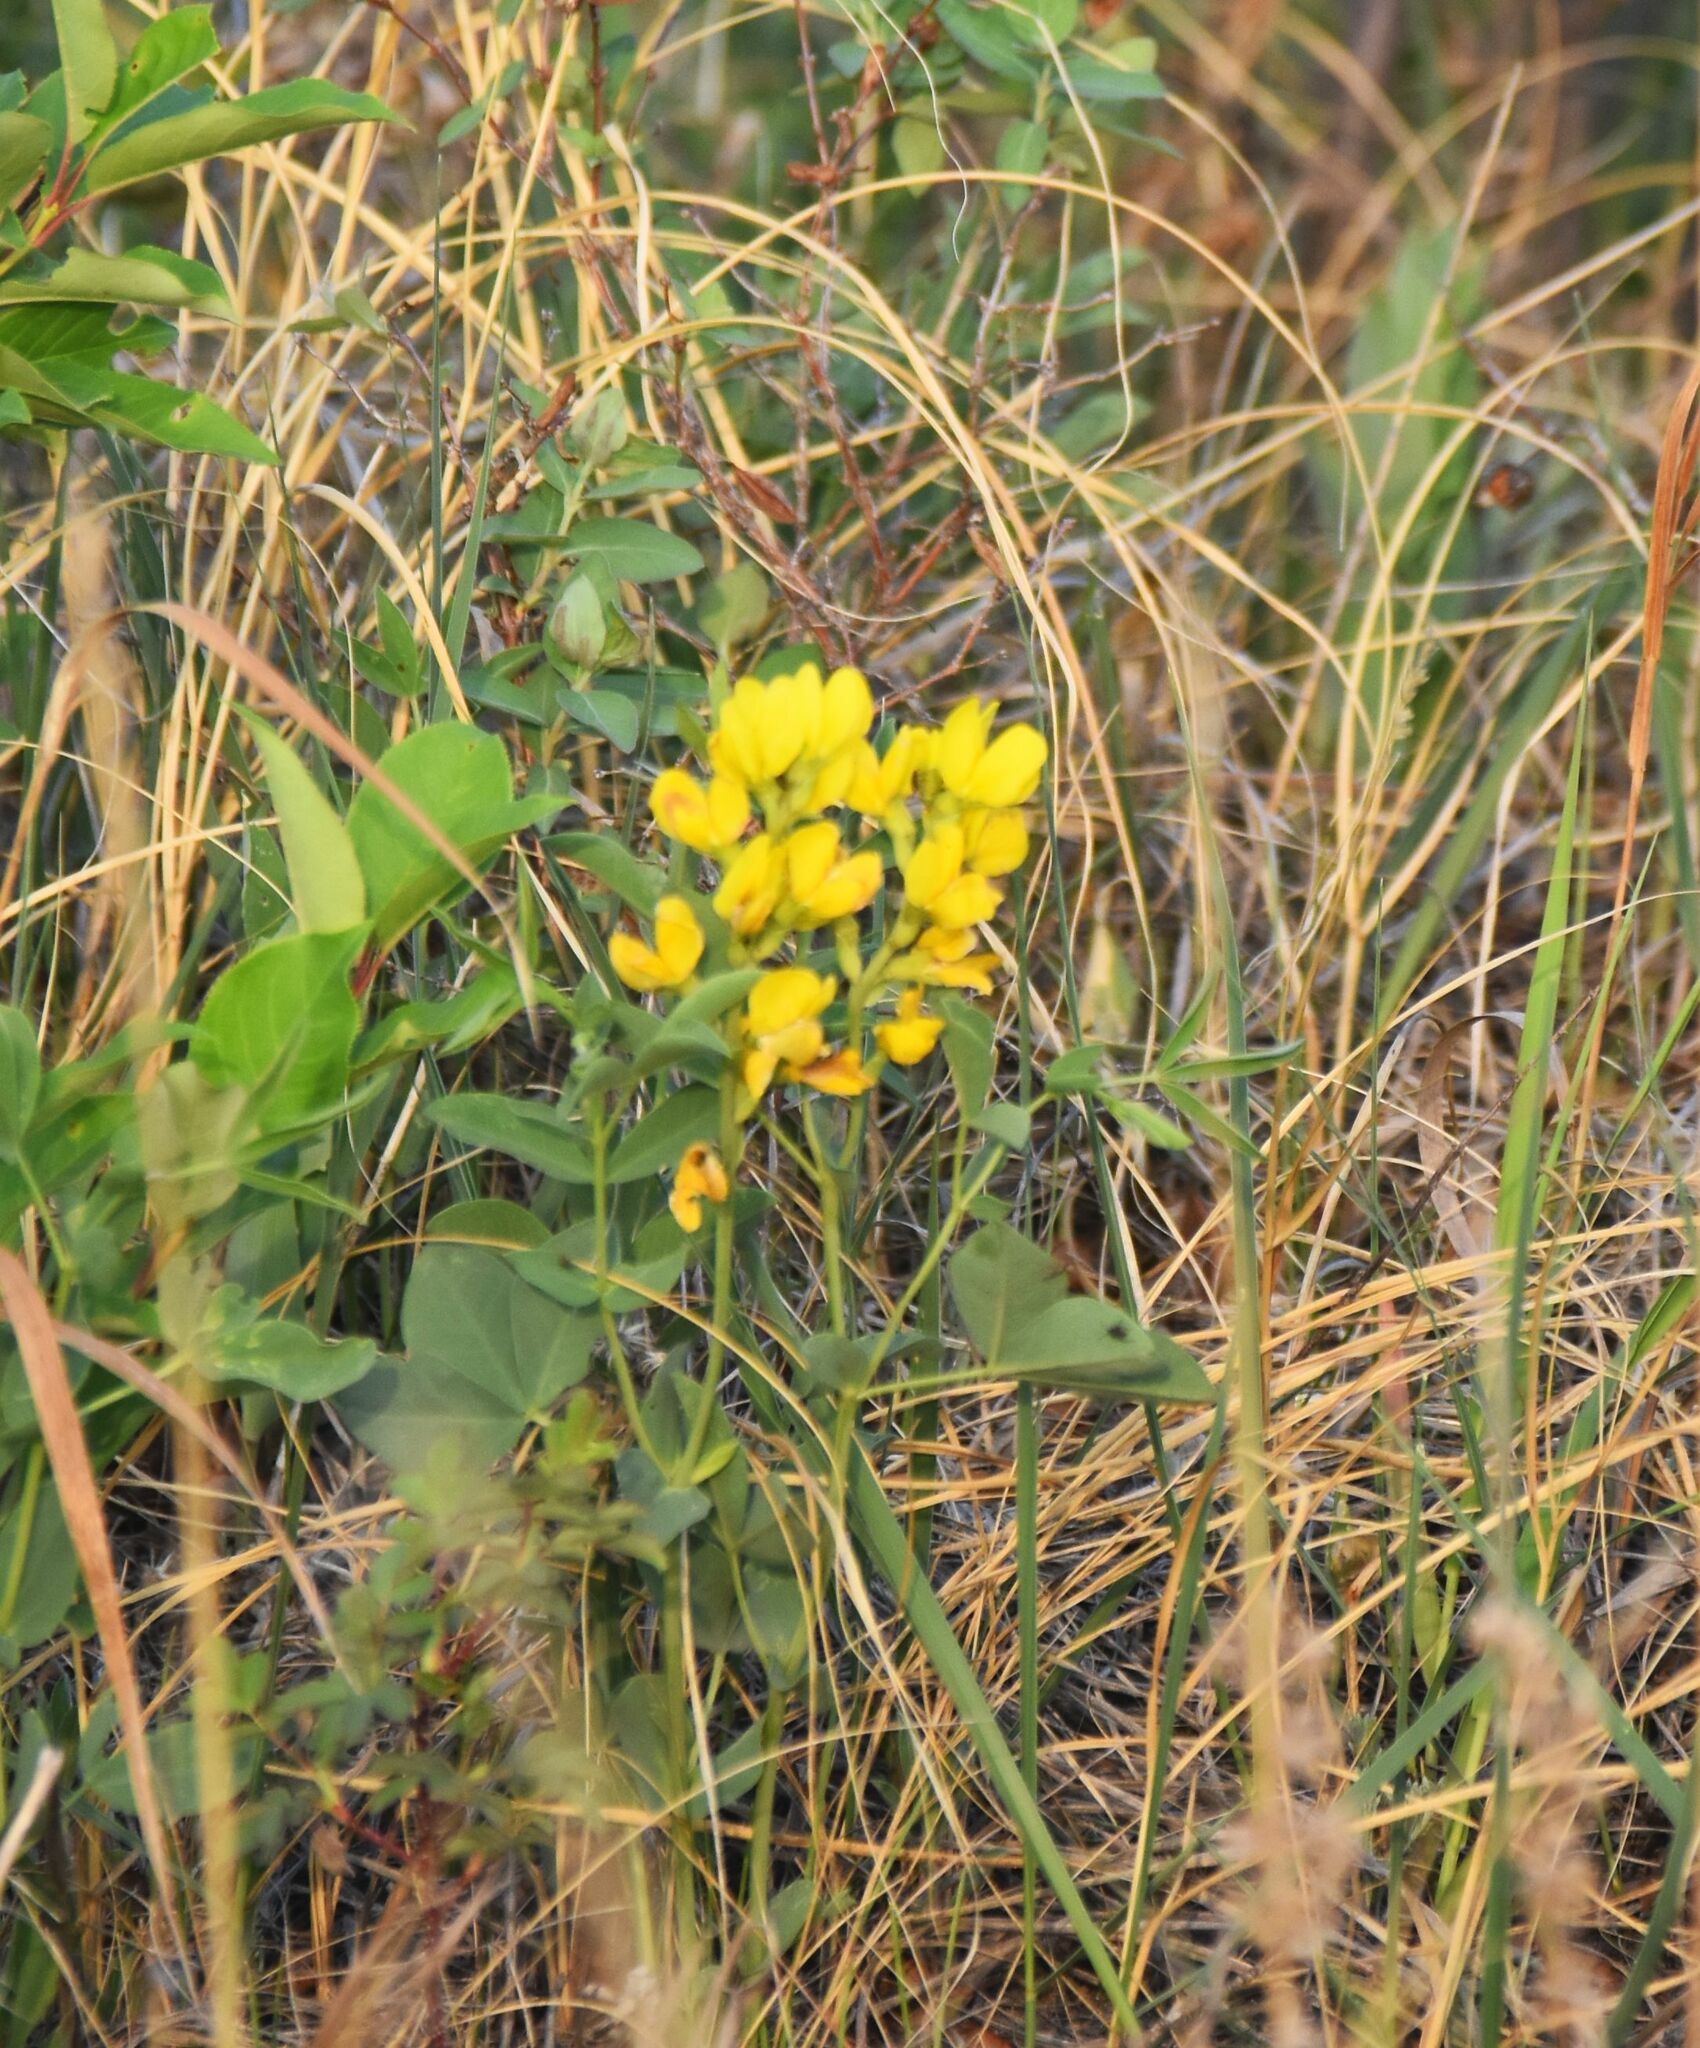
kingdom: Plantae
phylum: Tracheophyta
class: Magnoliopsida
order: Fabales
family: Fabaceae
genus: Thermopsis
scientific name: Thermopsis rhombifolia
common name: Circle-pod-pea
